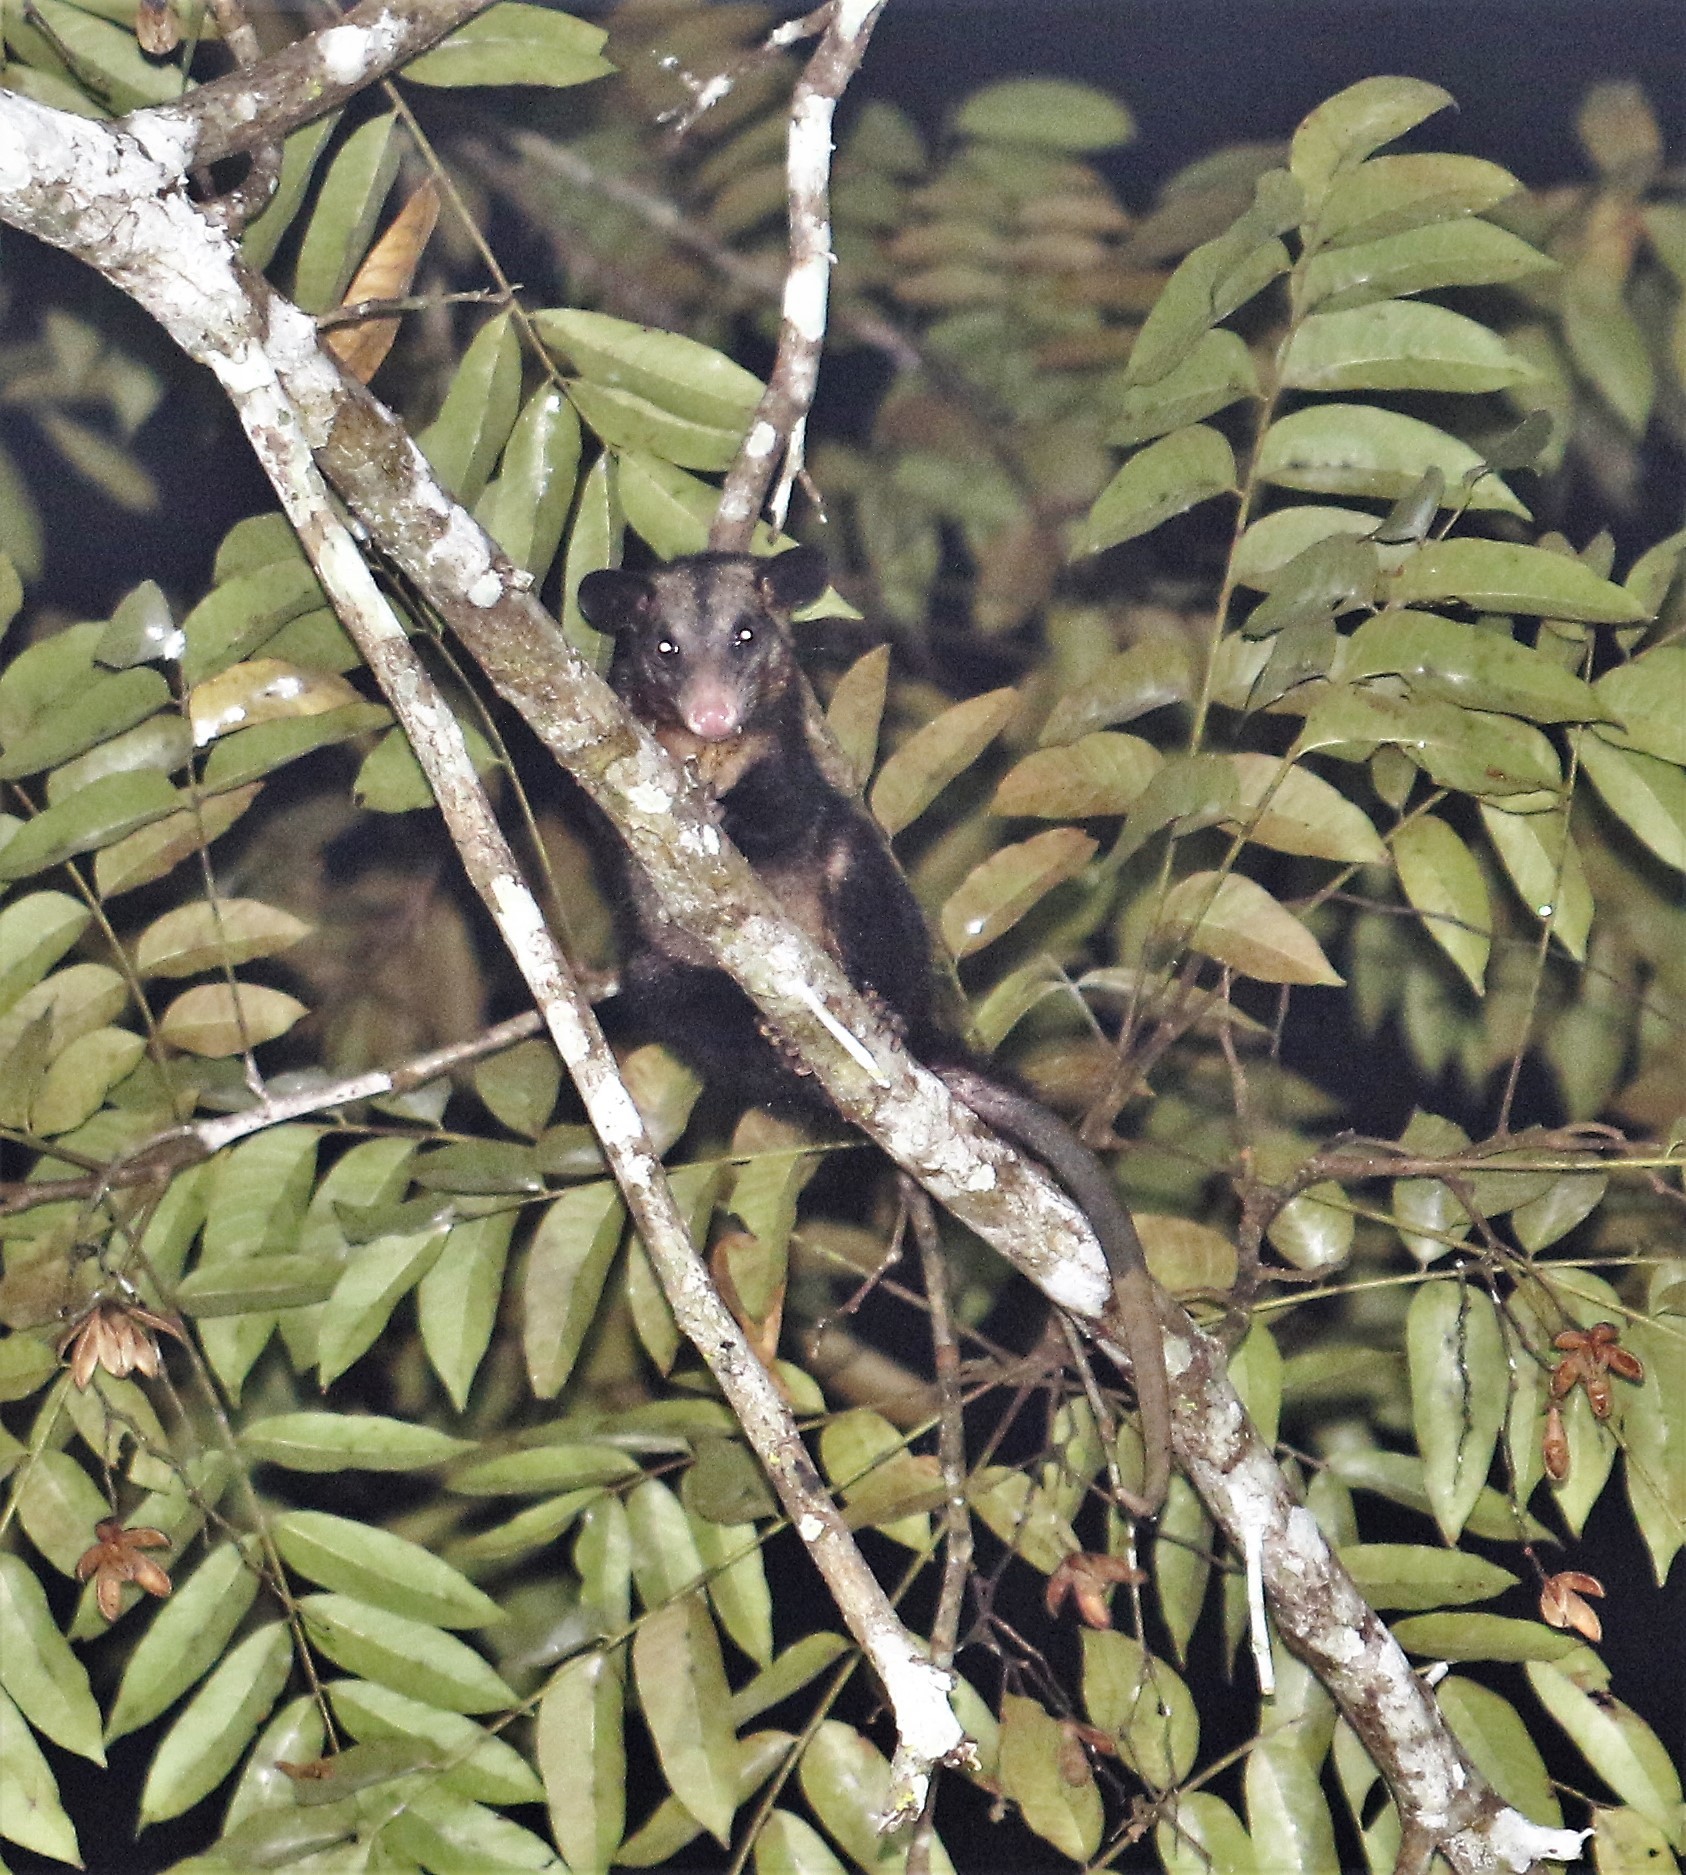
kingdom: Animalia
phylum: Chordata
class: Mammalia
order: Didelphimorphia
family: Didelphidae
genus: Didelphis
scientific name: Didelphis marsupialis
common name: Common opossum
